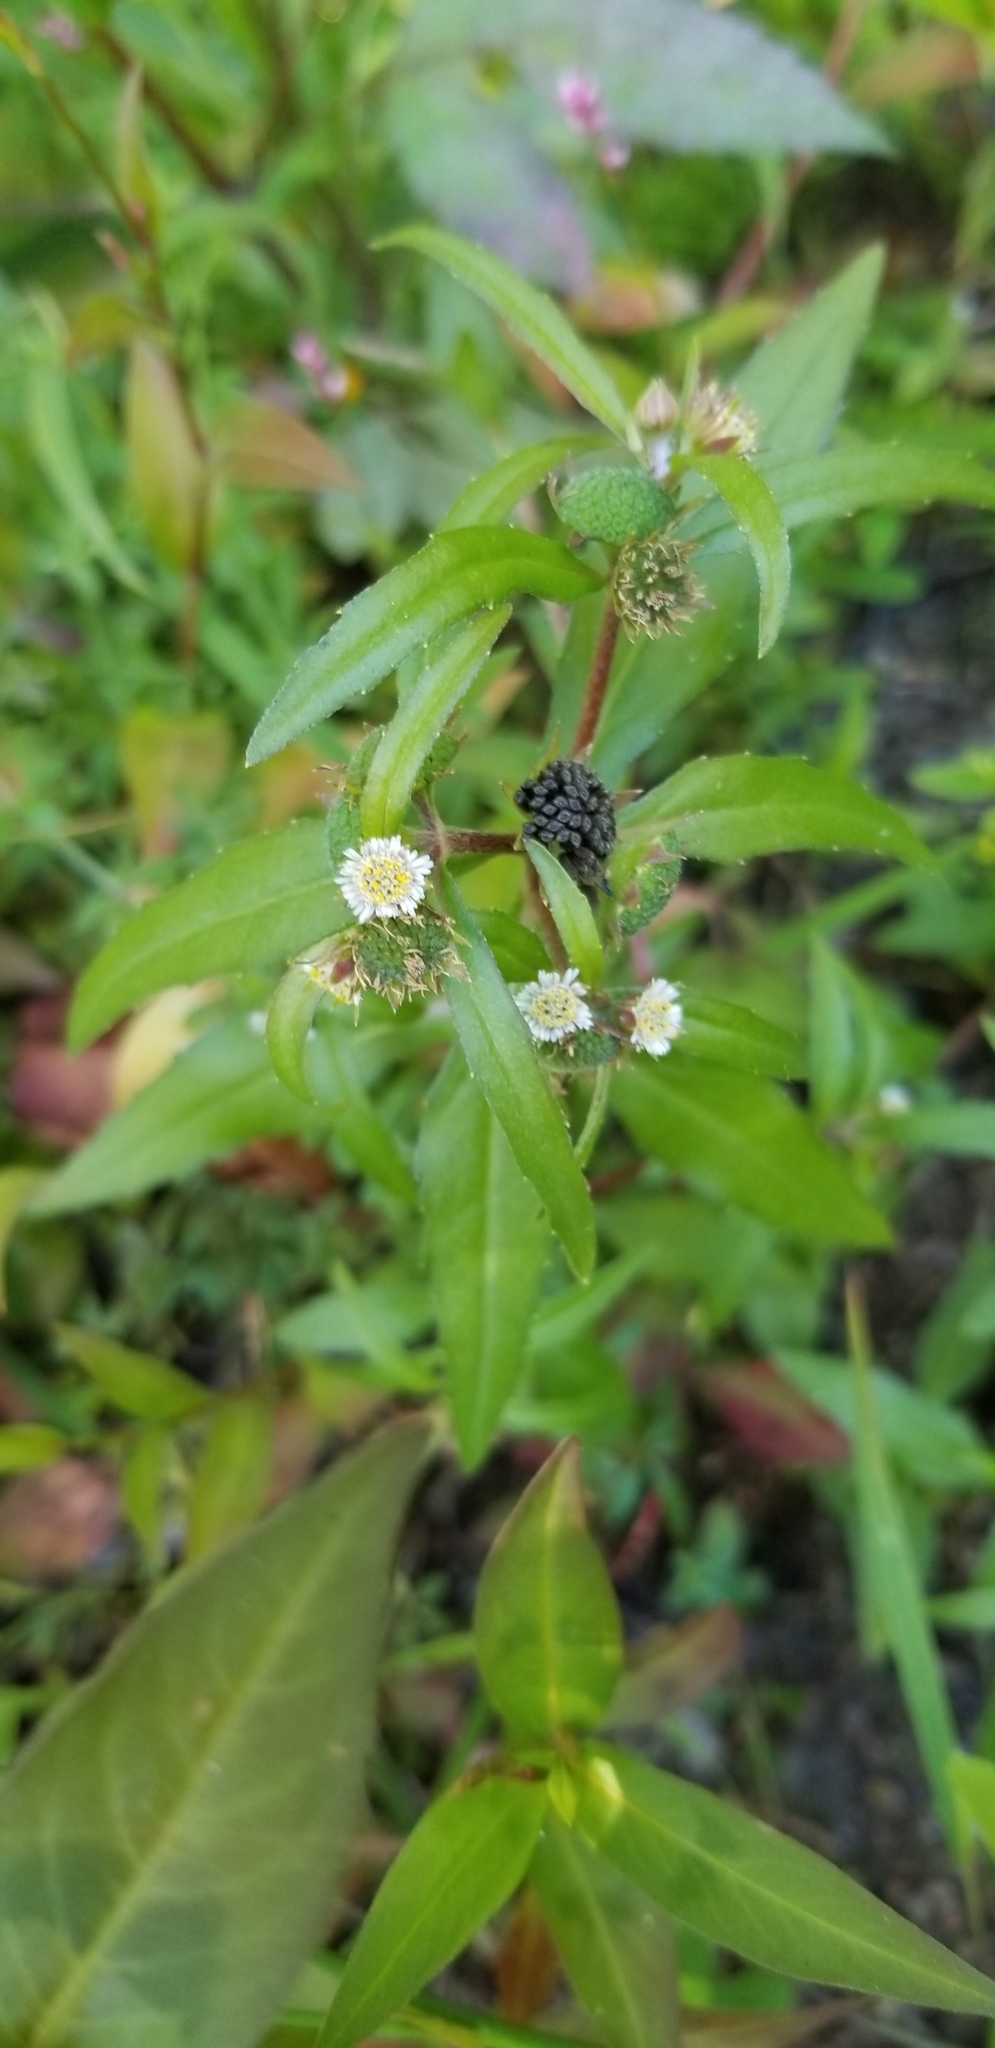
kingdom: Plantae
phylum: Tracheophyta
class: Magnoliopsida
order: Asterales
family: Asteraceae
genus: Eclipta
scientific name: Eclipta prostrata
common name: False daisy
